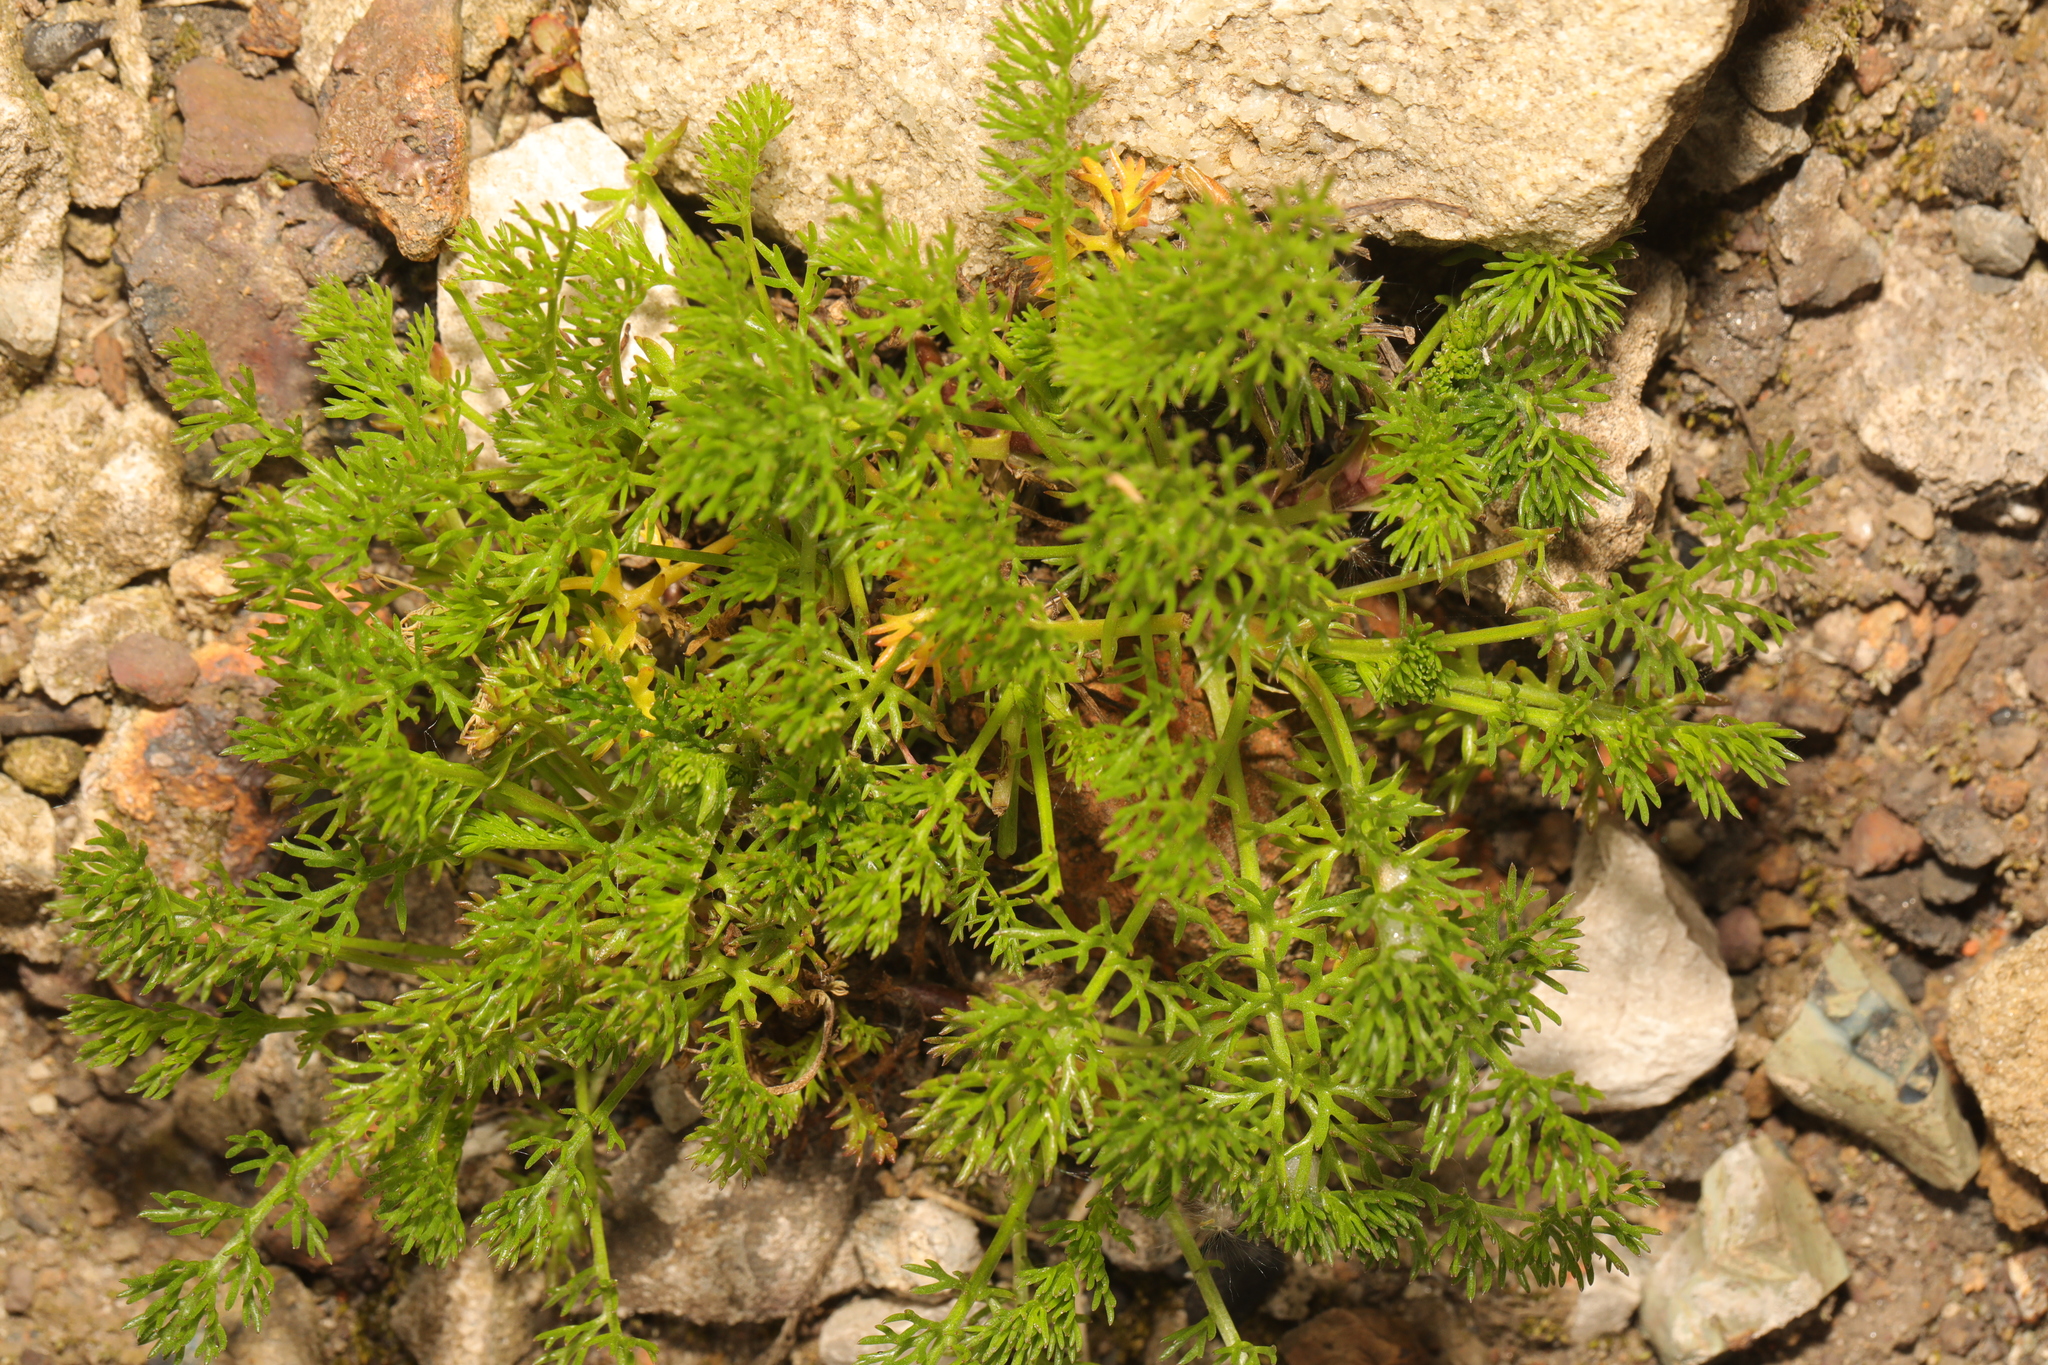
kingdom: Plantae
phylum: Tracheophyta
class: Magnoliopsida
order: Asterales
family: Asteraceae
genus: Tripleurospermum
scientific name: Tripleurospermum maritimum
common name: Sea mayweed
